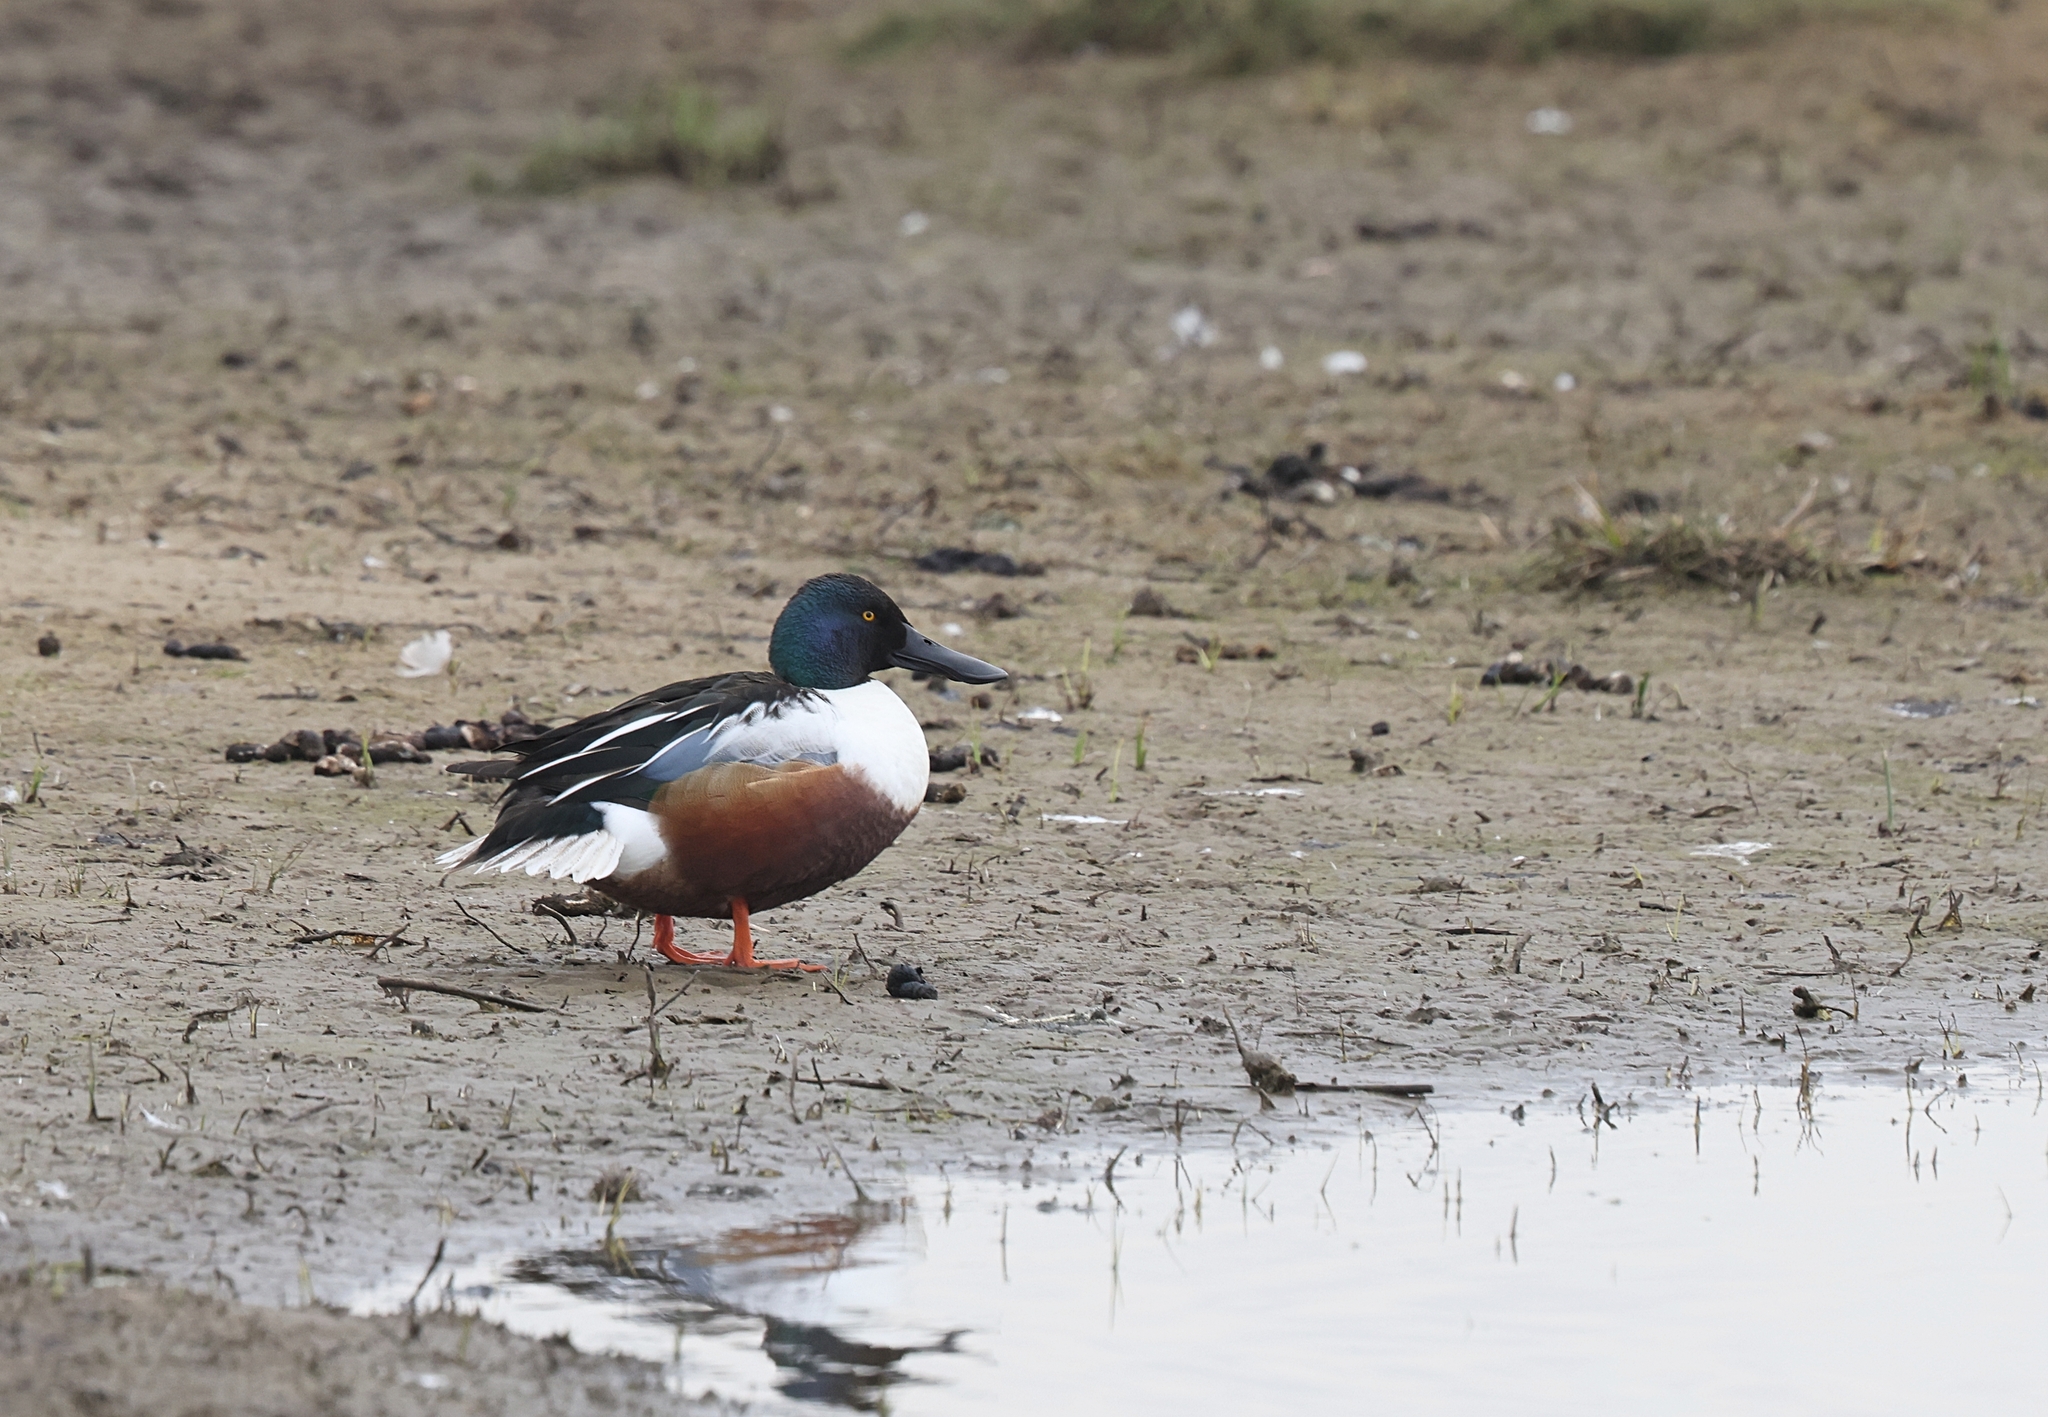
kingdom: Animalia
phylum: Chordata
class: Aves
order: Anseriformes
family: Anatidae
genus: Spatula
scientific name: Spatula clypeata
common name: Northern shoveler
